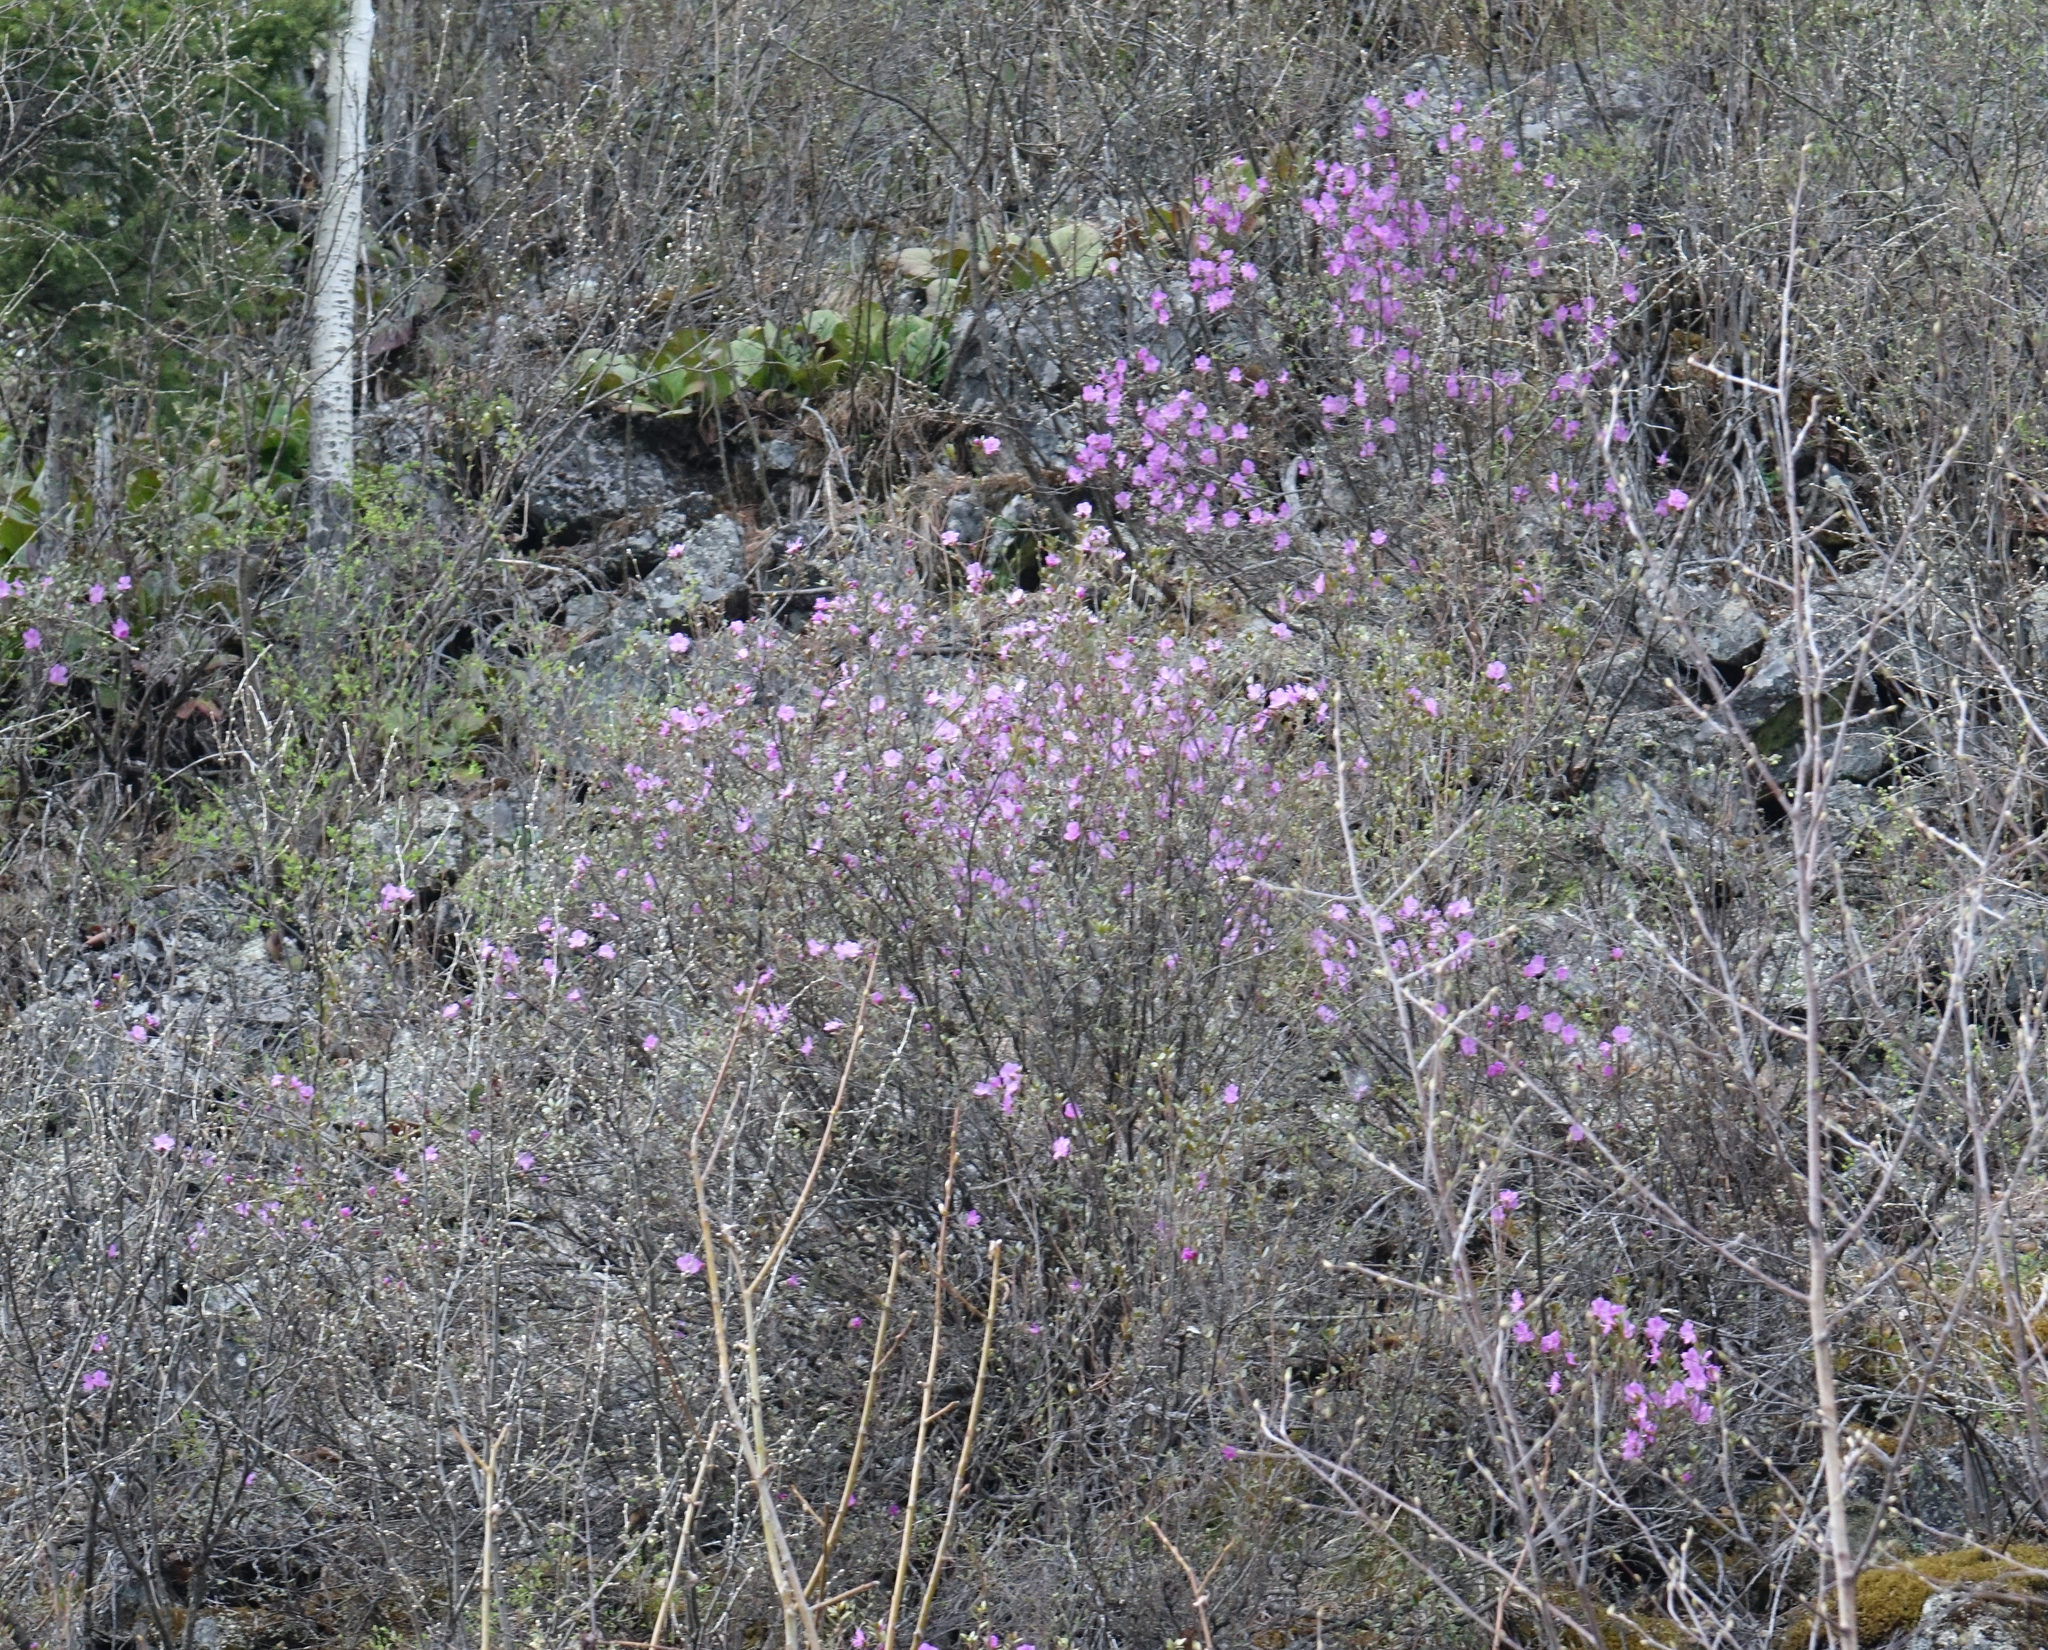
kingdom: Plantae
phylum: Tracheophyta
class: Magnoliopsida
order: Ericales
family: Ericaceae
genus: Rhododendron
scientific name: Rhododendron dauricum
